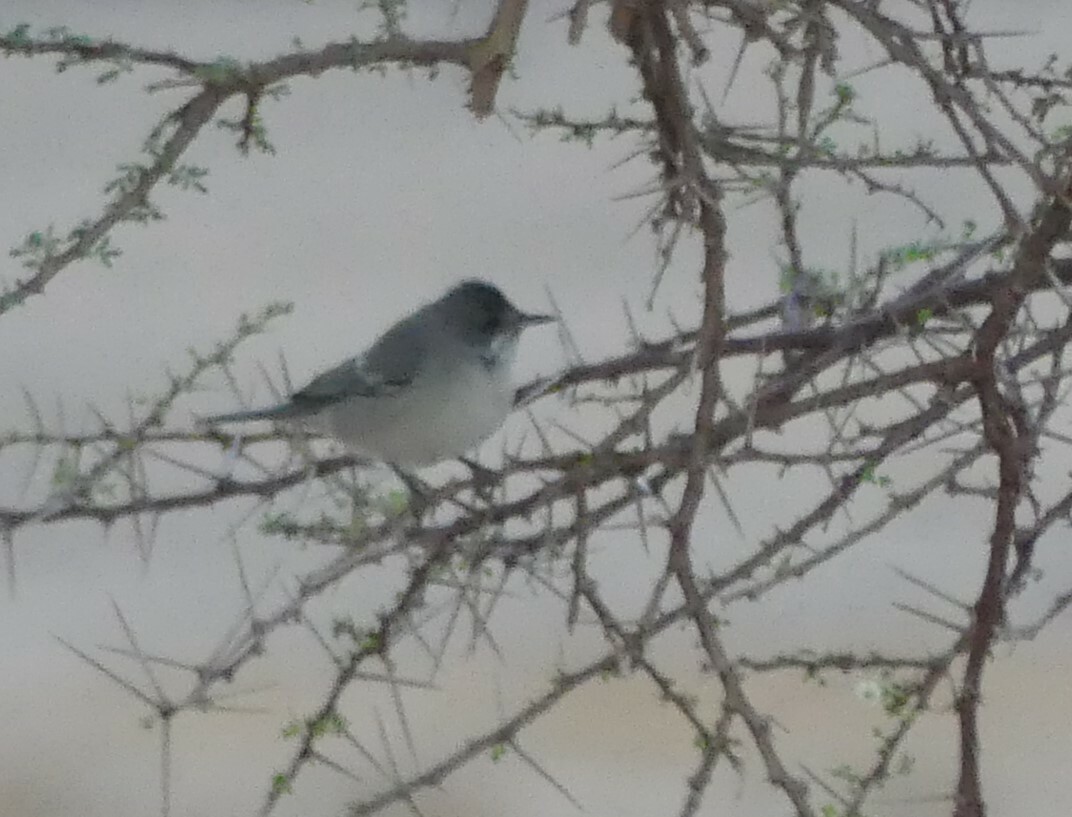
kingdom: Animalia
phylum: Chordata
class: Aves
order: Passeriformes
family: Sylviidae
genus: Sylvia
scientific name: Sylvia ruppeli
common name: Rüppell's warbler
